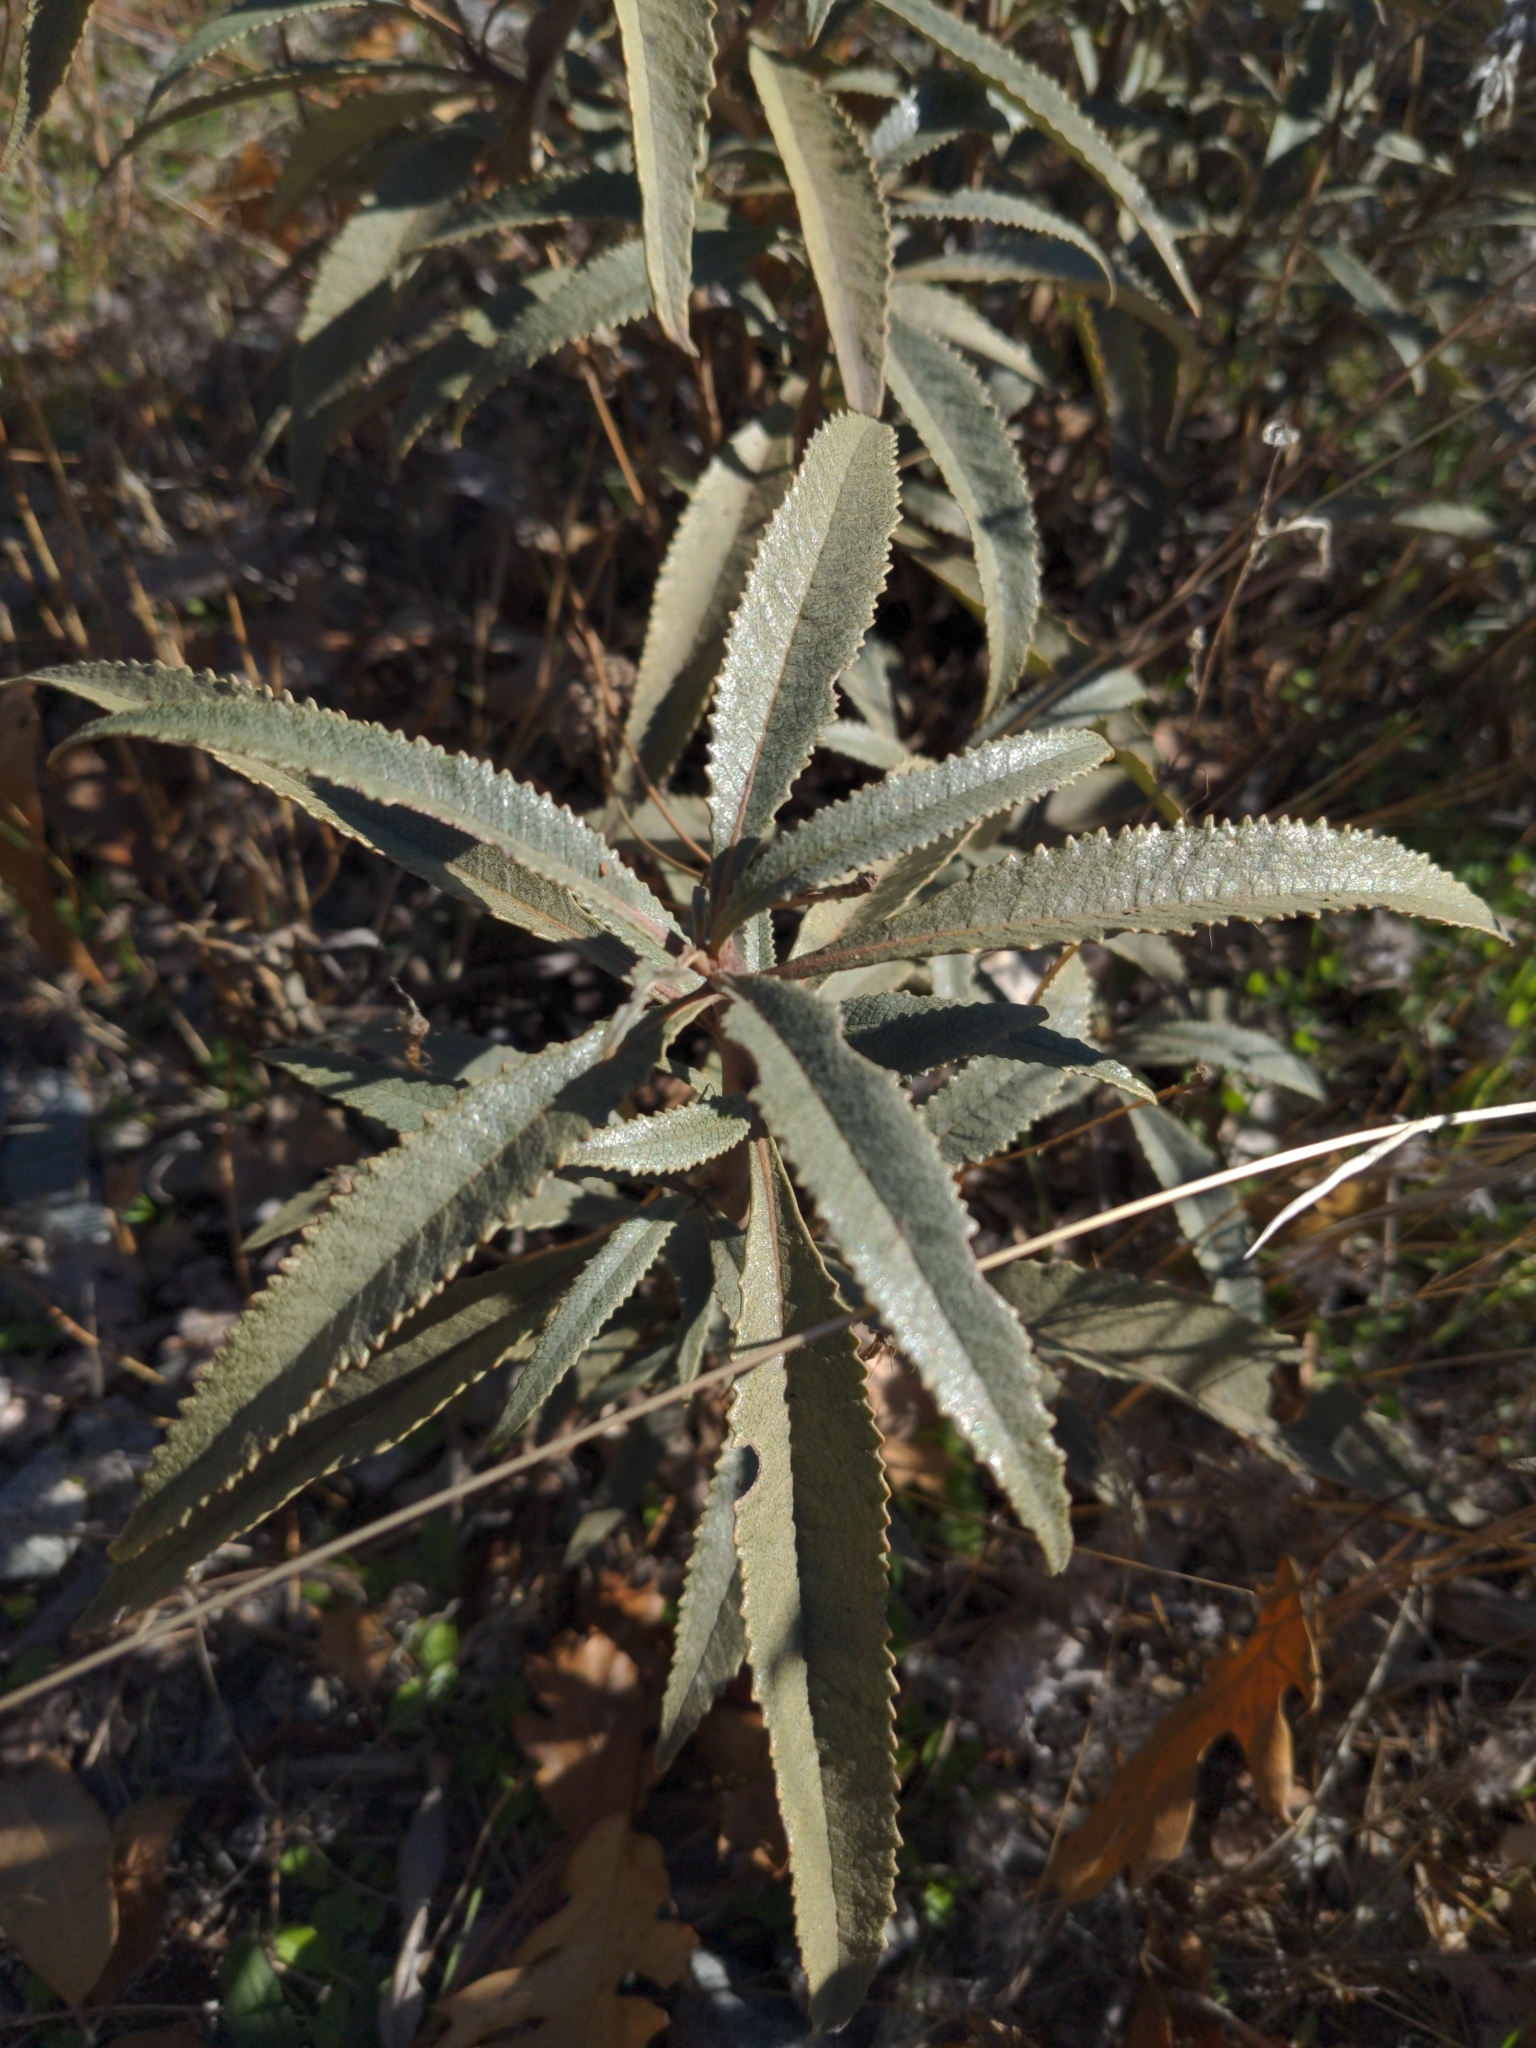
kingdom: Plantae
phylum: Tracheophyta
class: Magnoliopsida
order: Boraginales
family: Namaceae
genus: Eriodictyon
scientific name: Eriodictyon californicum
